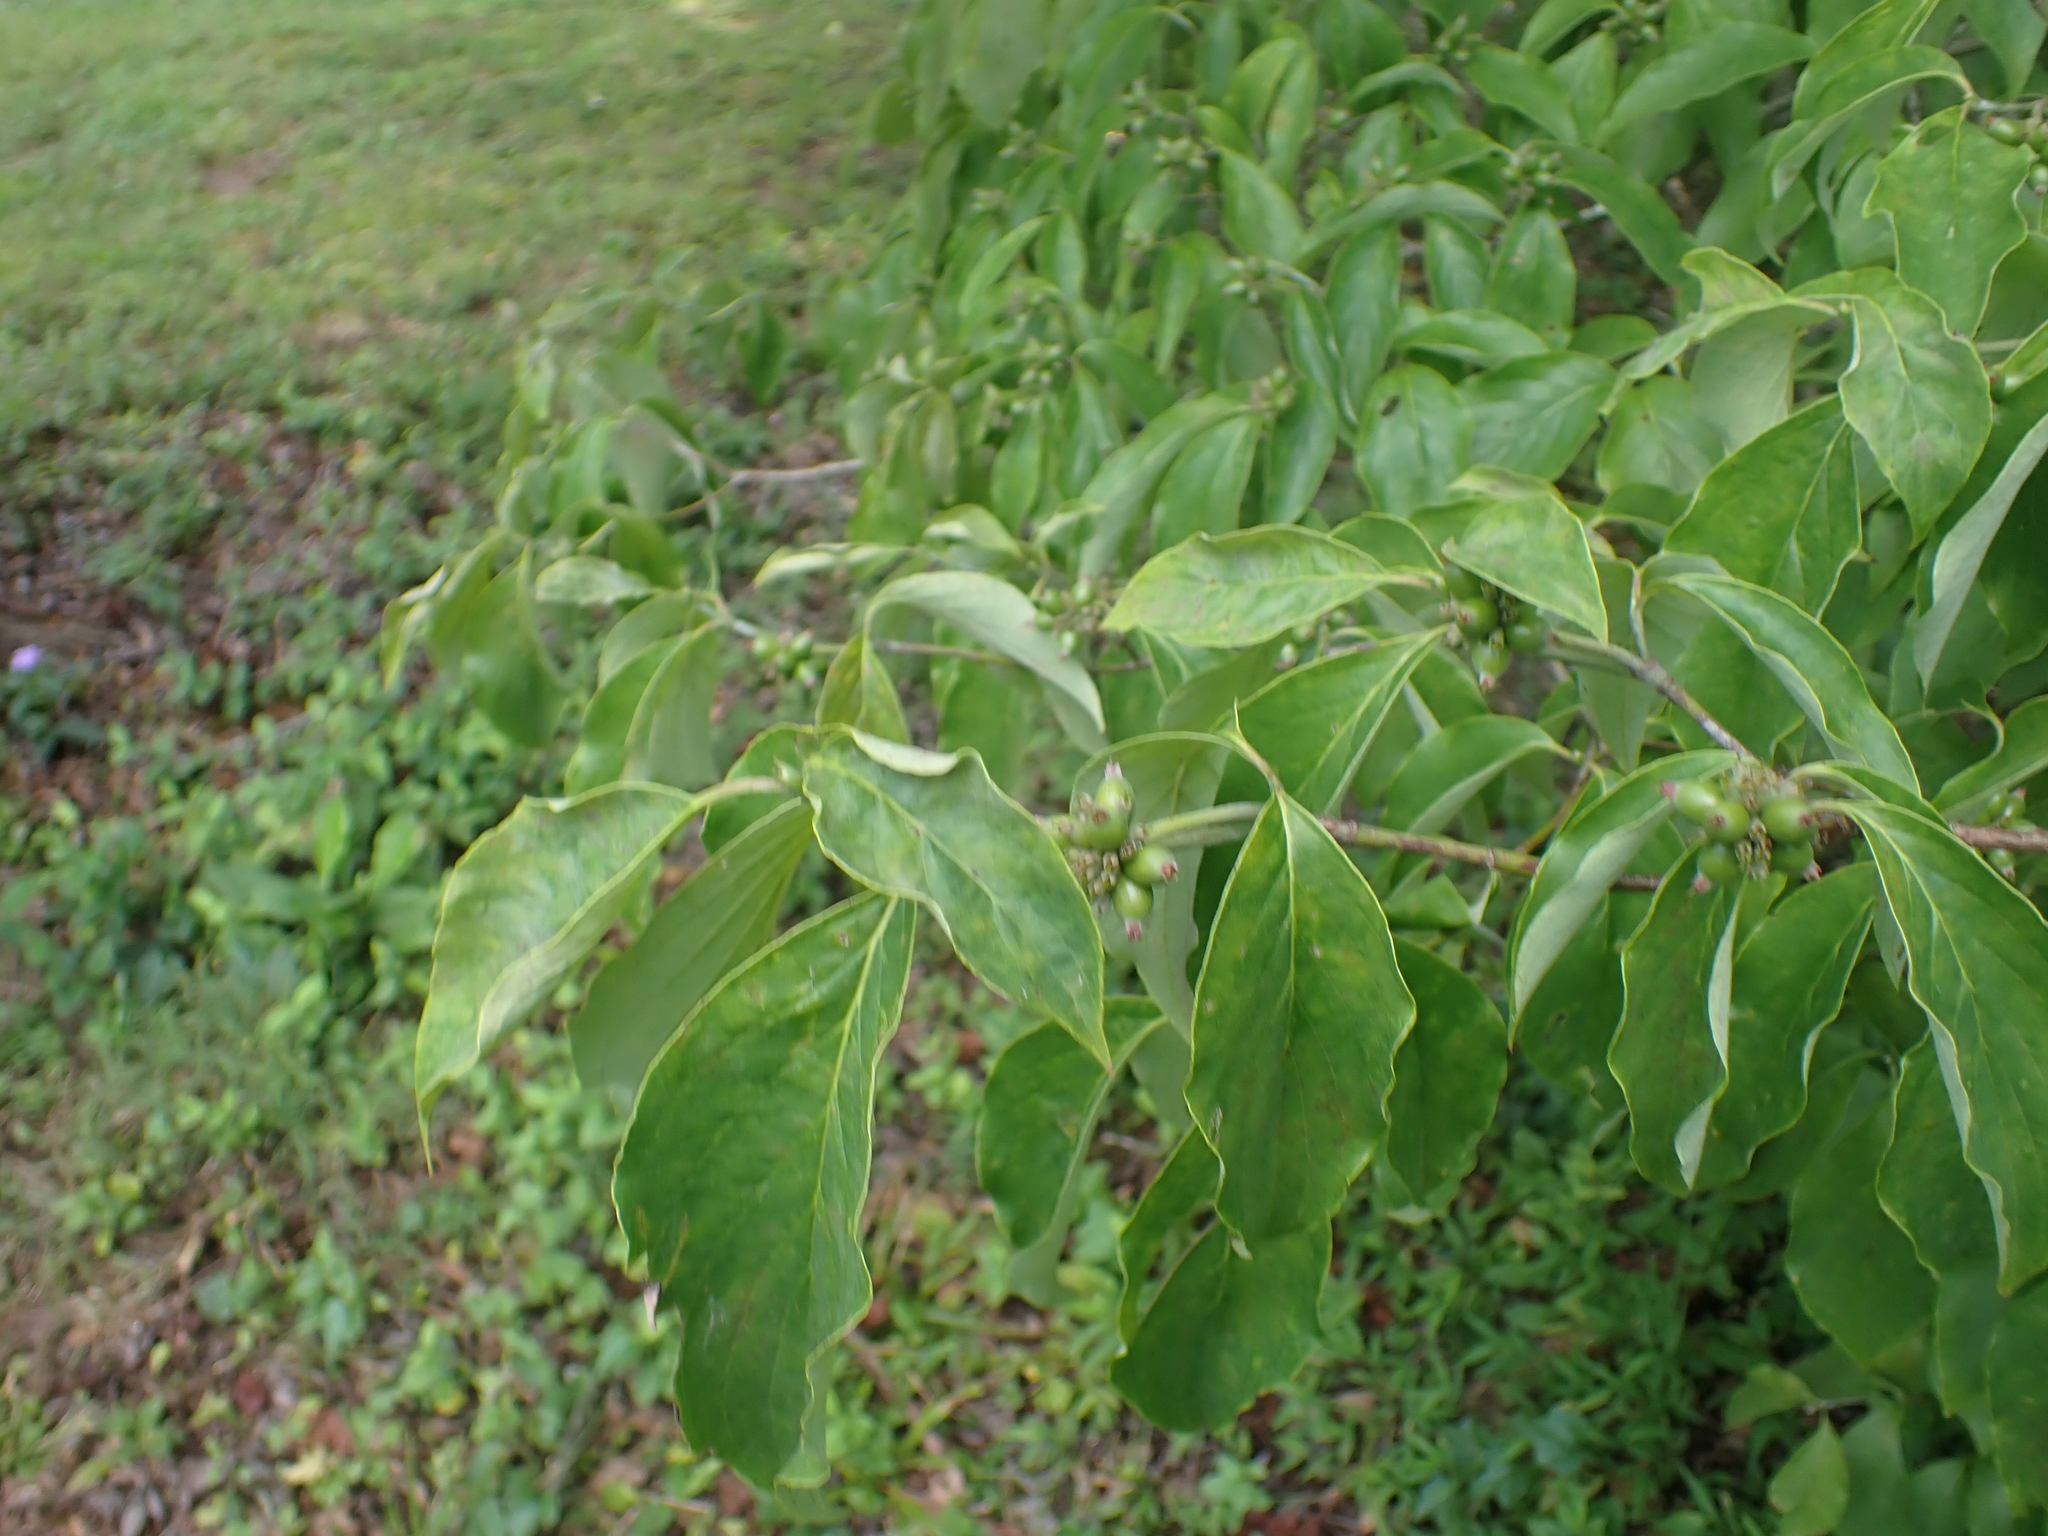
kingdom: Plantae
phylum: Tracheophyta
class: Magnoliopsida
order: Cornales
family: Cornaceae
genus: Cornus
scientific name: Cornus florida
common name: Flowering dogwood
